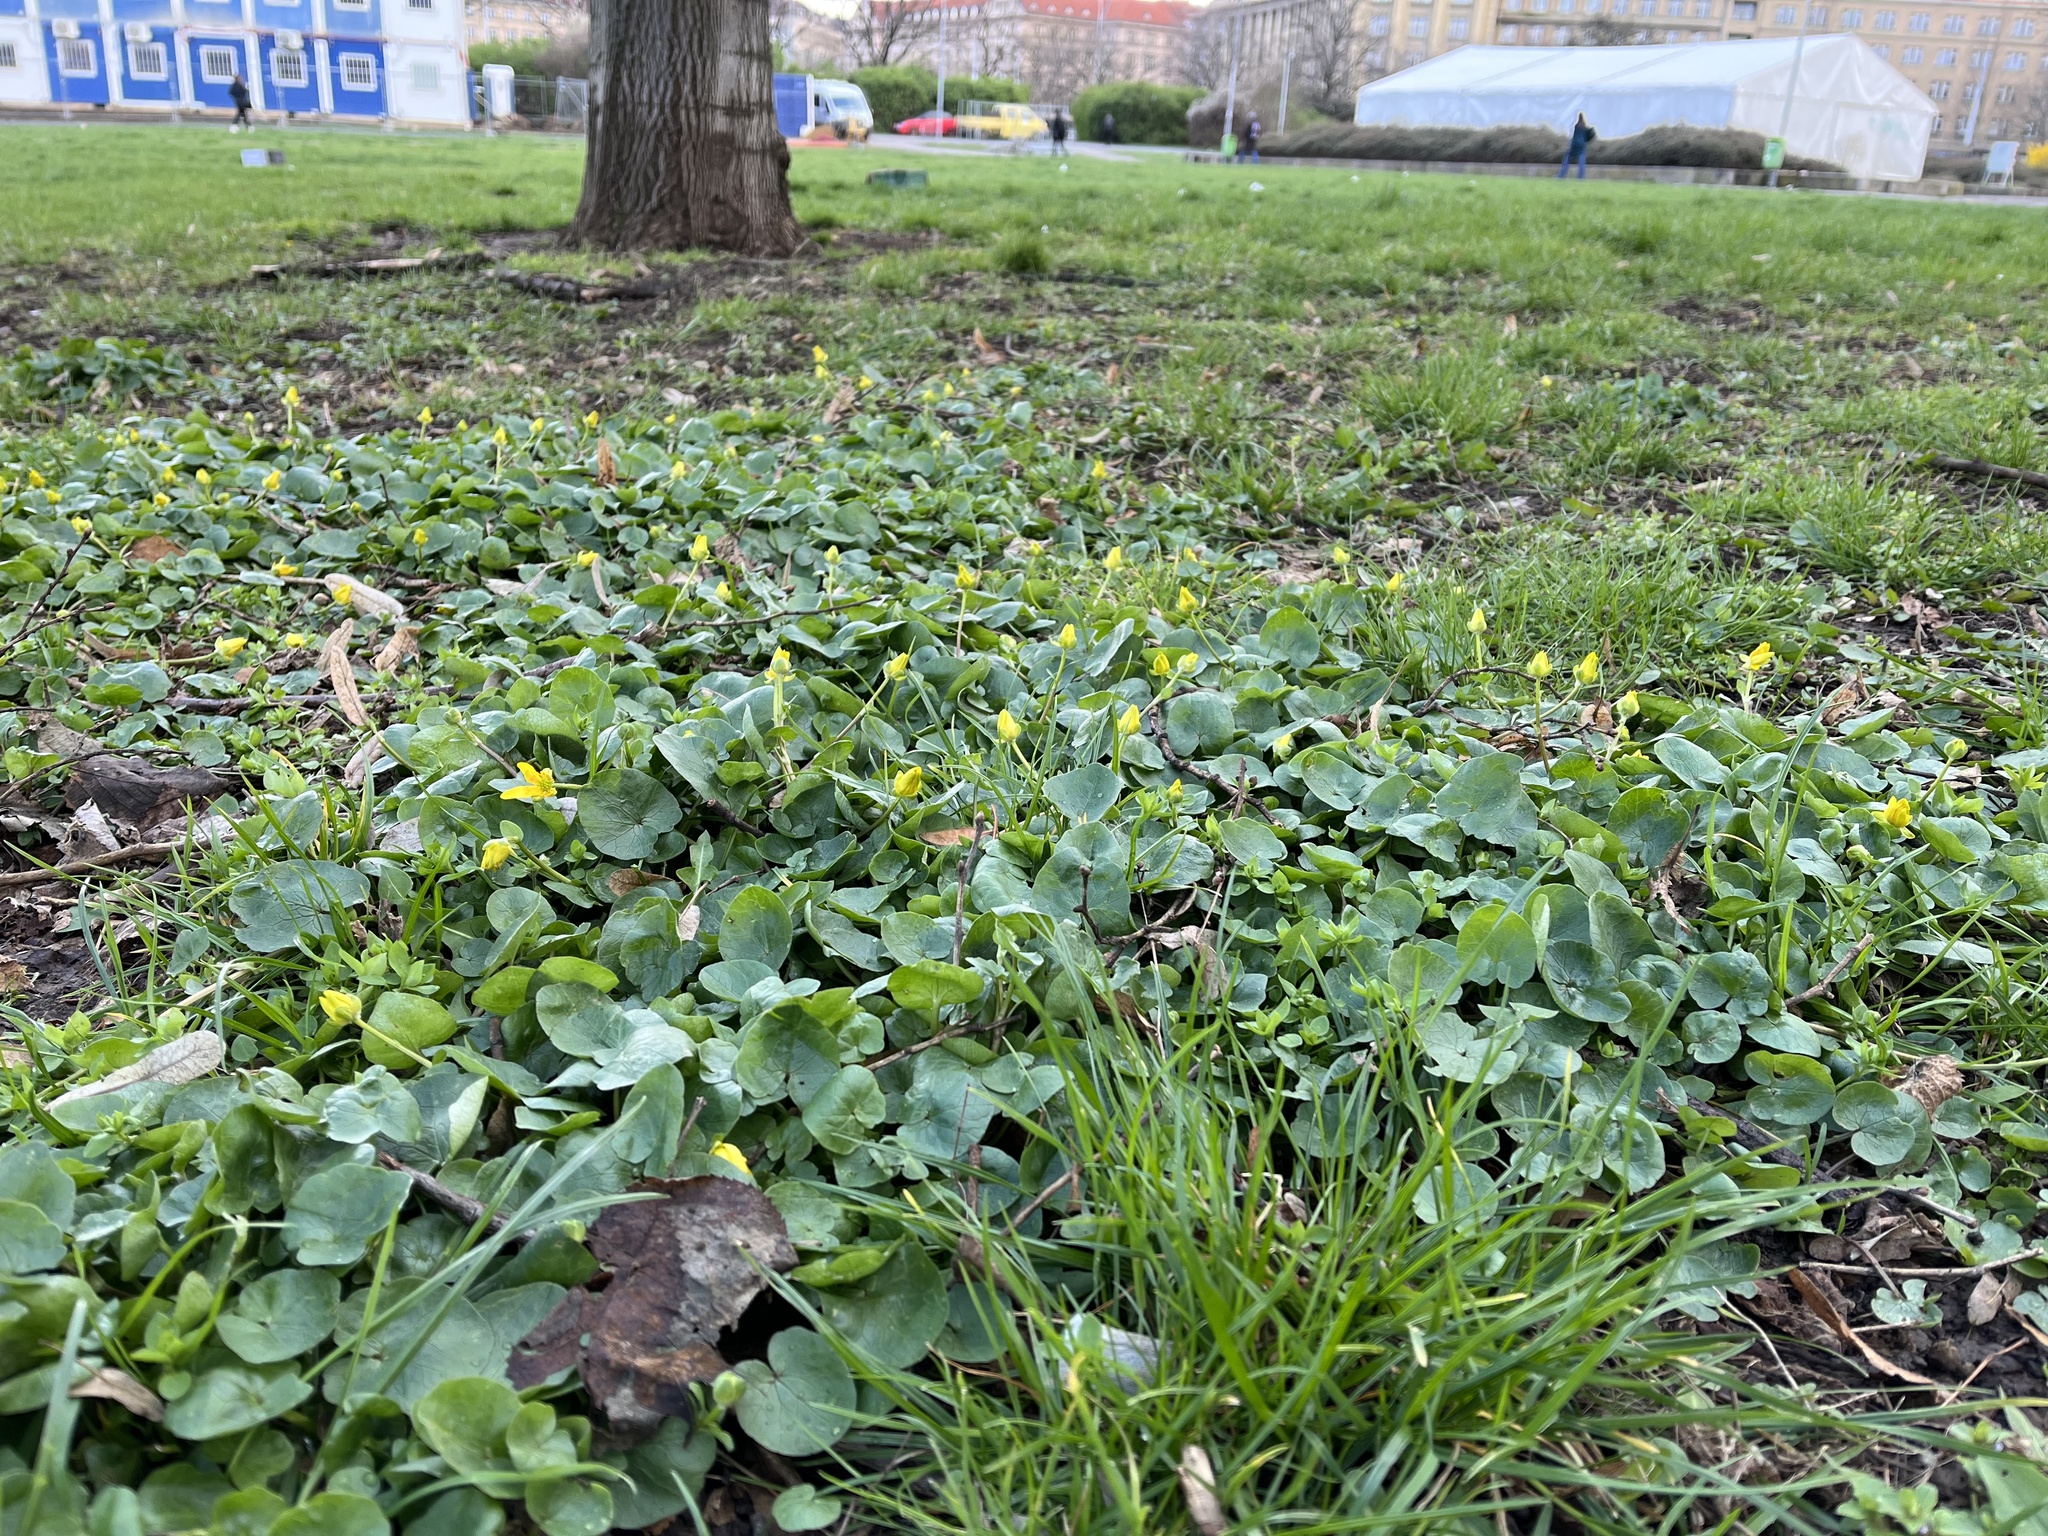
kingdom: Plantae
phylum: Tracheophyta
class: Magnoliopsida
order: Ranunculales
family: Ranunculaceae
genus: Ficaria
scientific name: Ficaria verna
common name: Lesser celandine
